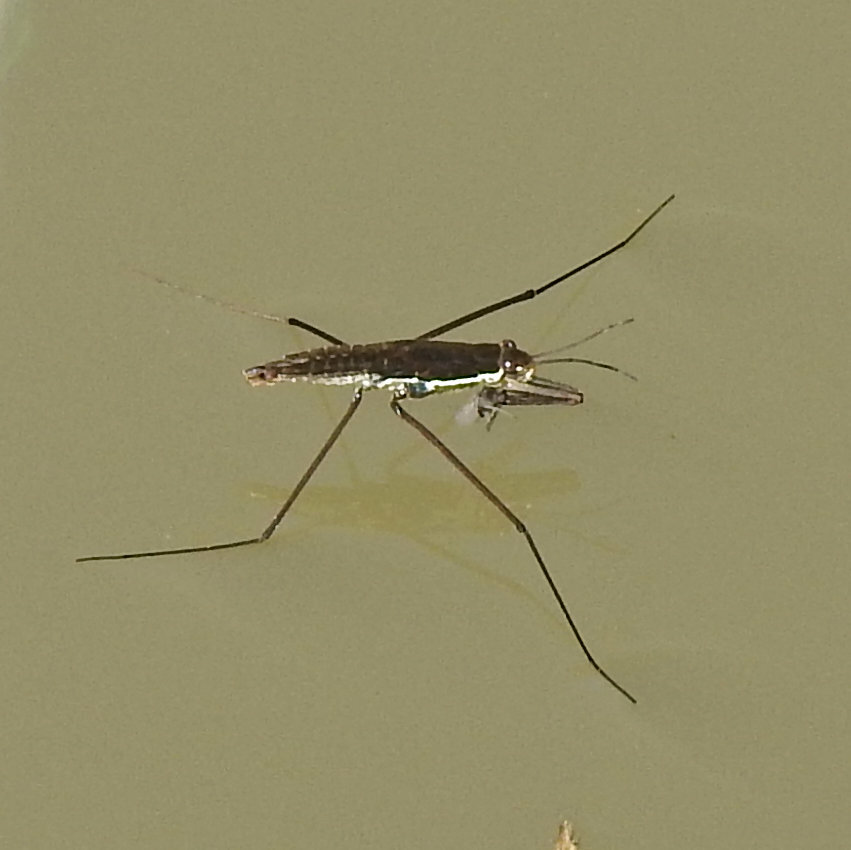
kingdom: Animalia
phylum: Arthropoda
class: Insecta
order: Hemiptera
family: Gerridae
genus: Aquarius
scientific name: Aquarius remigis
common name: Common water strider
